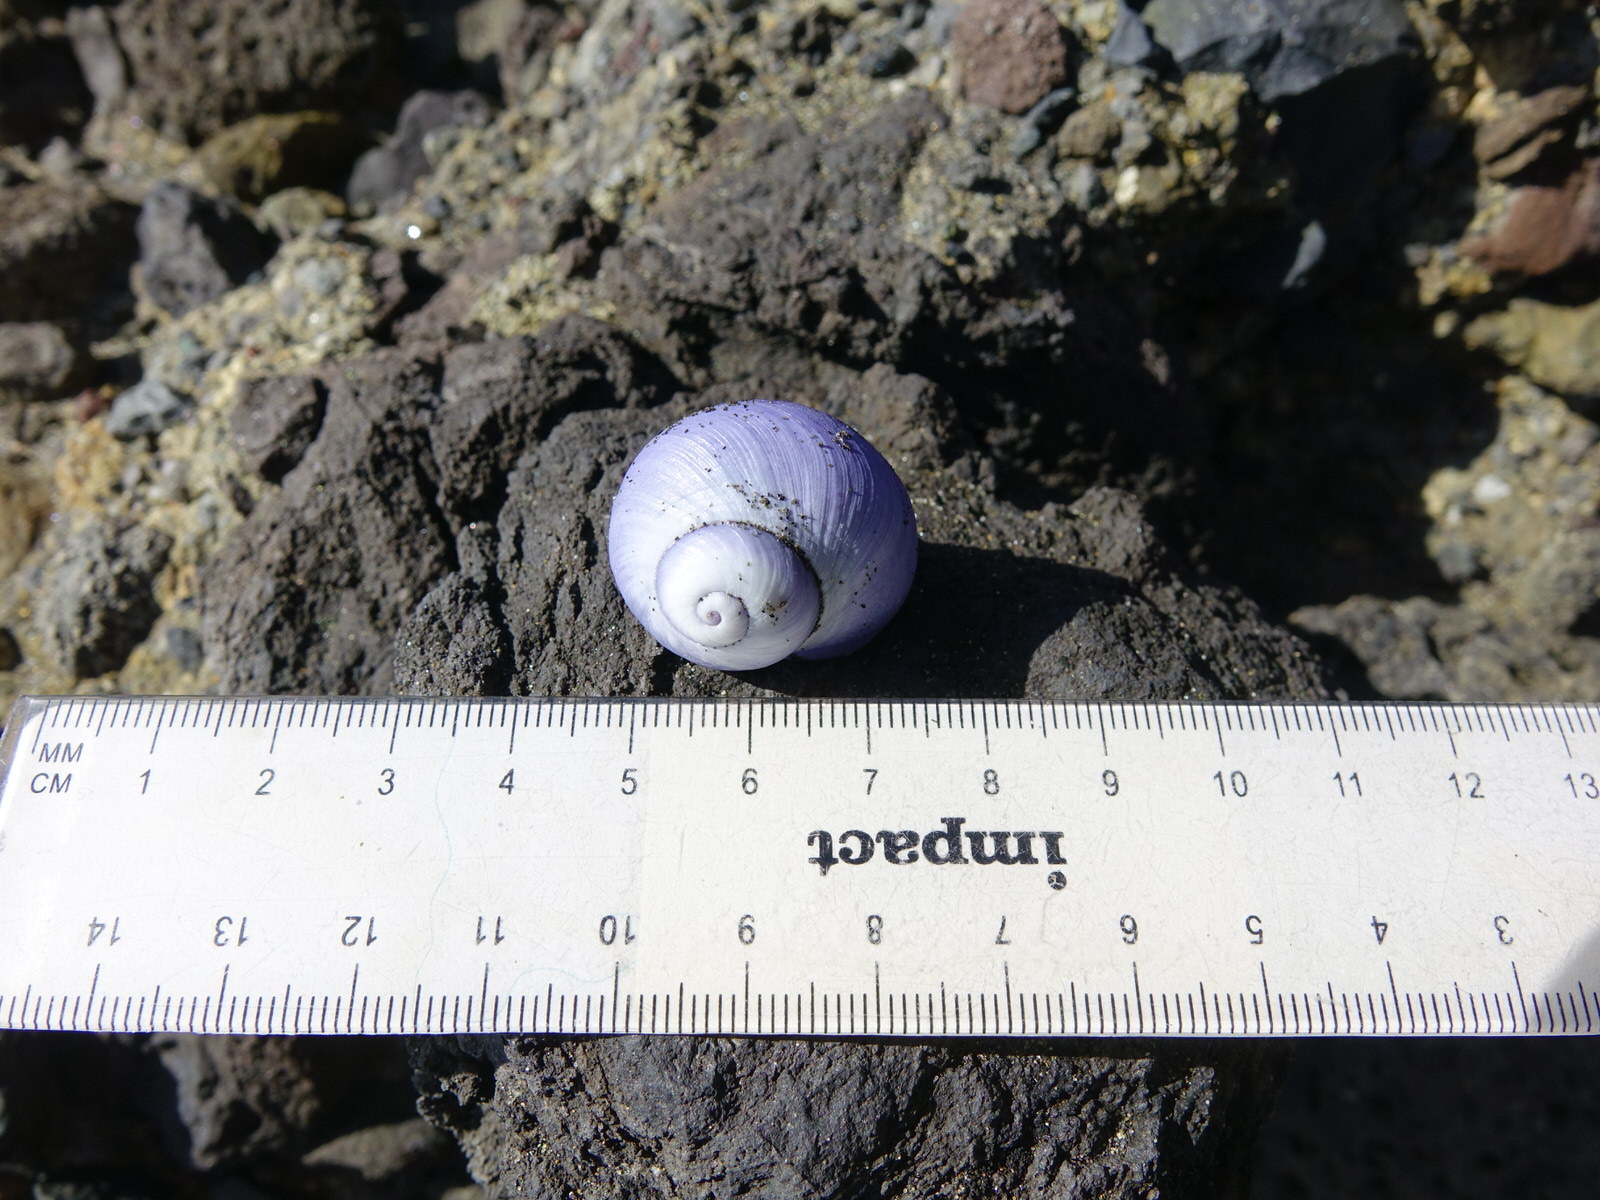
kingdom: Animalia
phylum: Mollusca
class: Gastropoda
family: Epitoniidae
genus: Janthina
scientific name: Janthina janthina
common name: Common janthina
